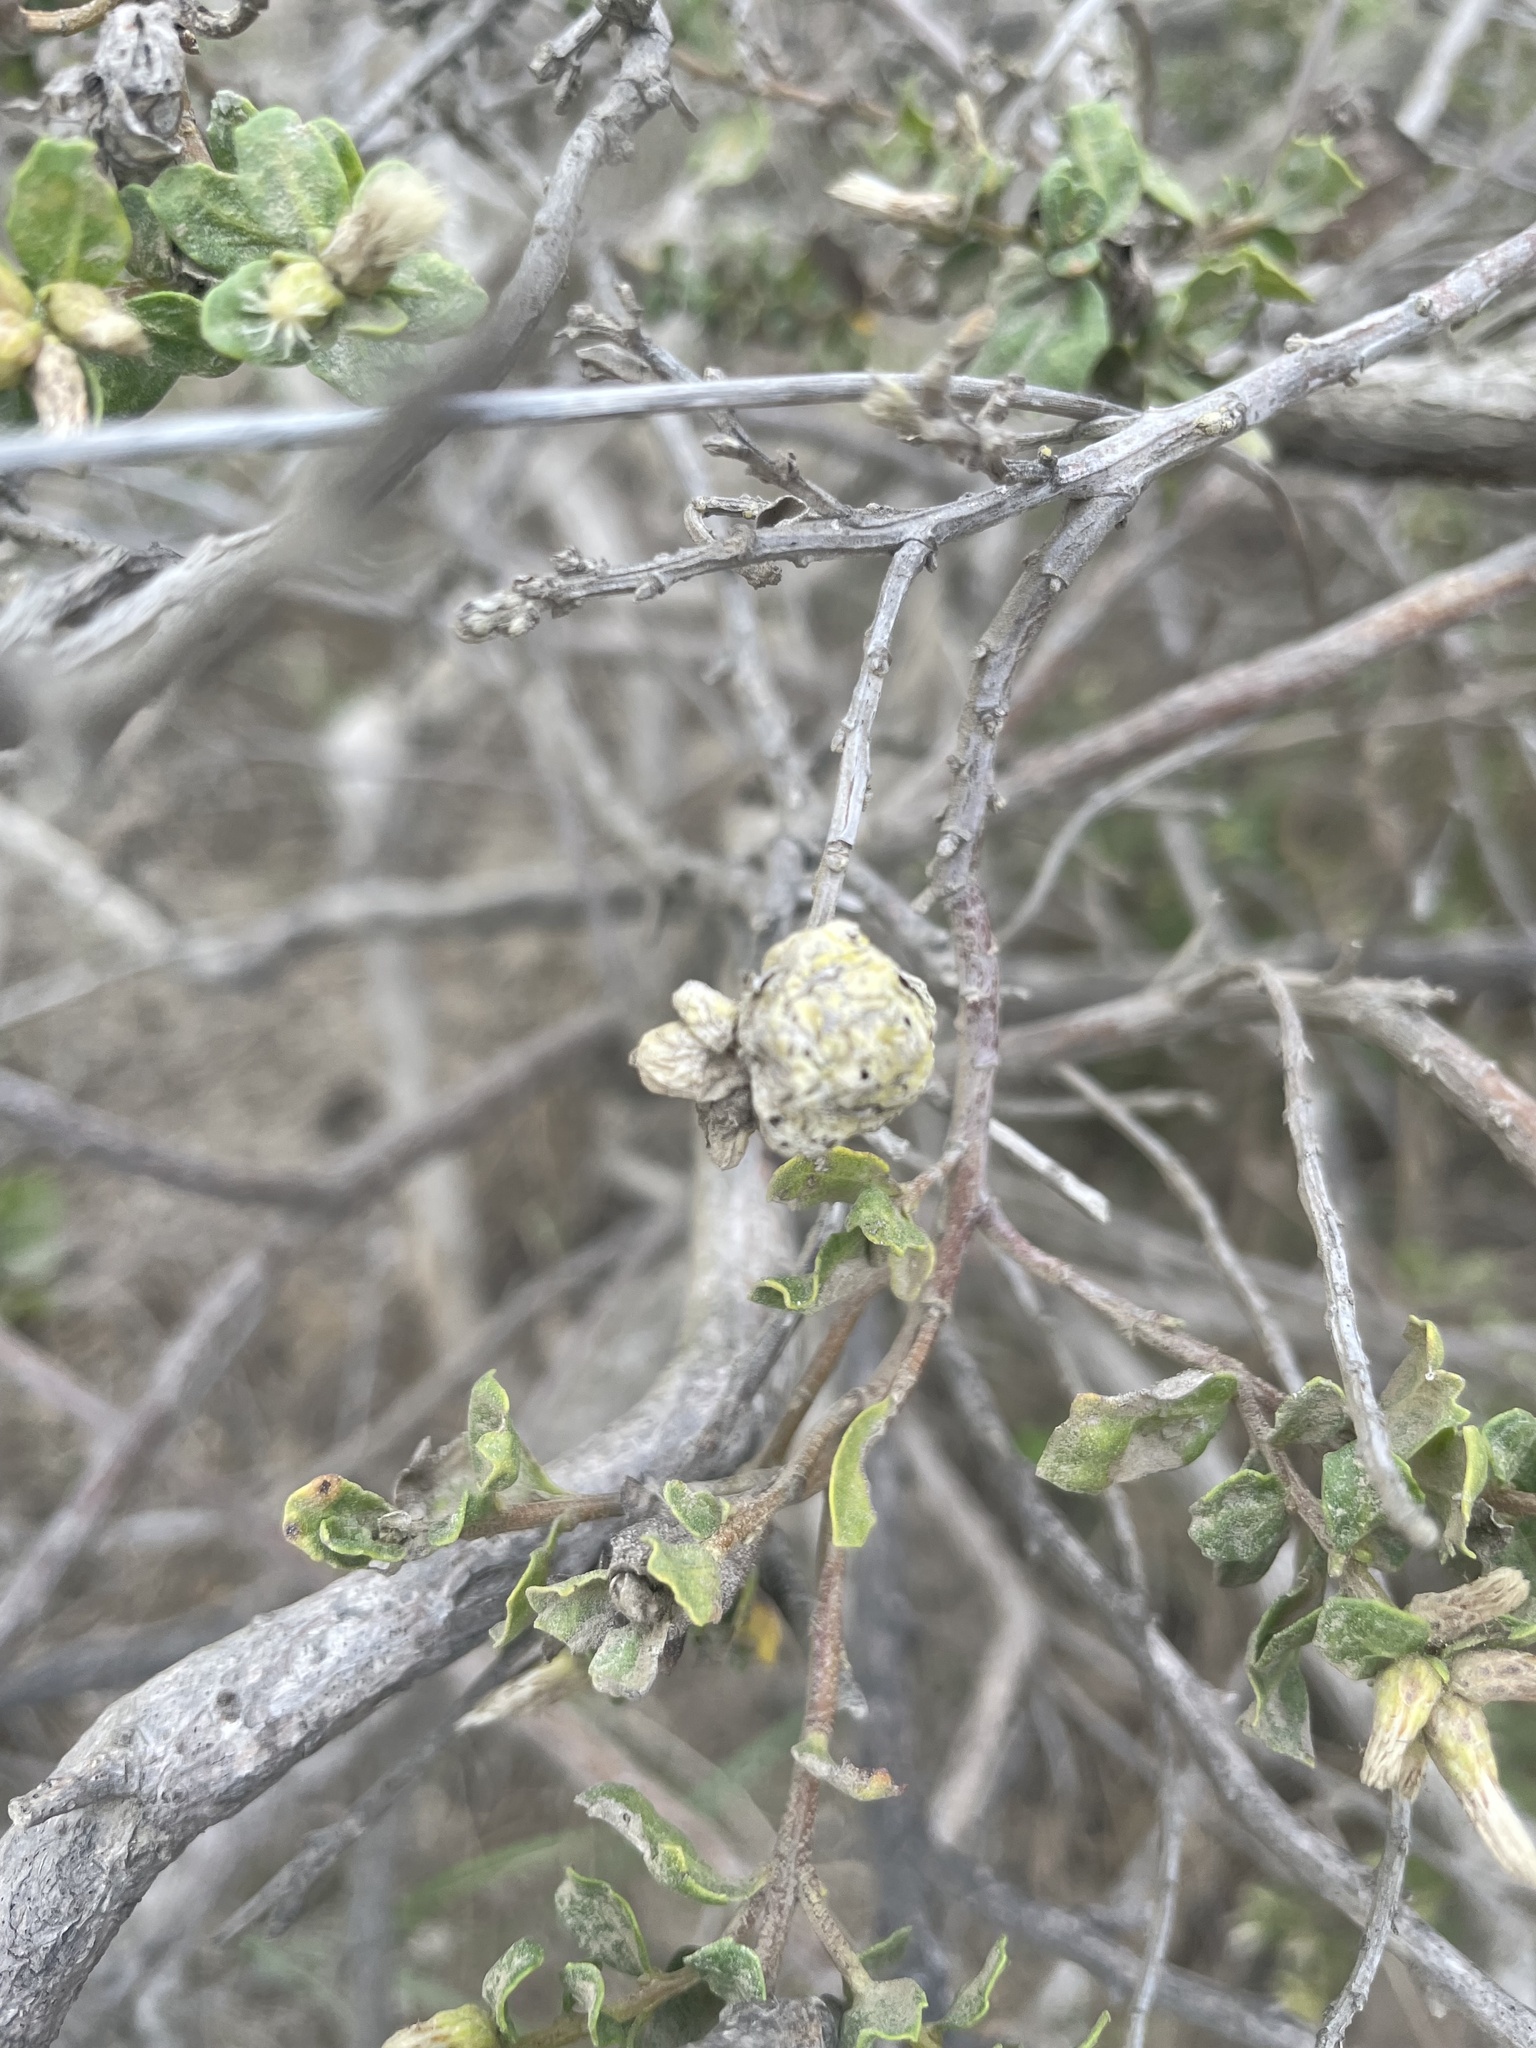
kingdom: Animalia
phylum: Arthropoda
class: Insecta
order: Diptera
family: Cecidomyiidae
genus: Rhopalomyia
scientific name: Rhopalomyia californica
